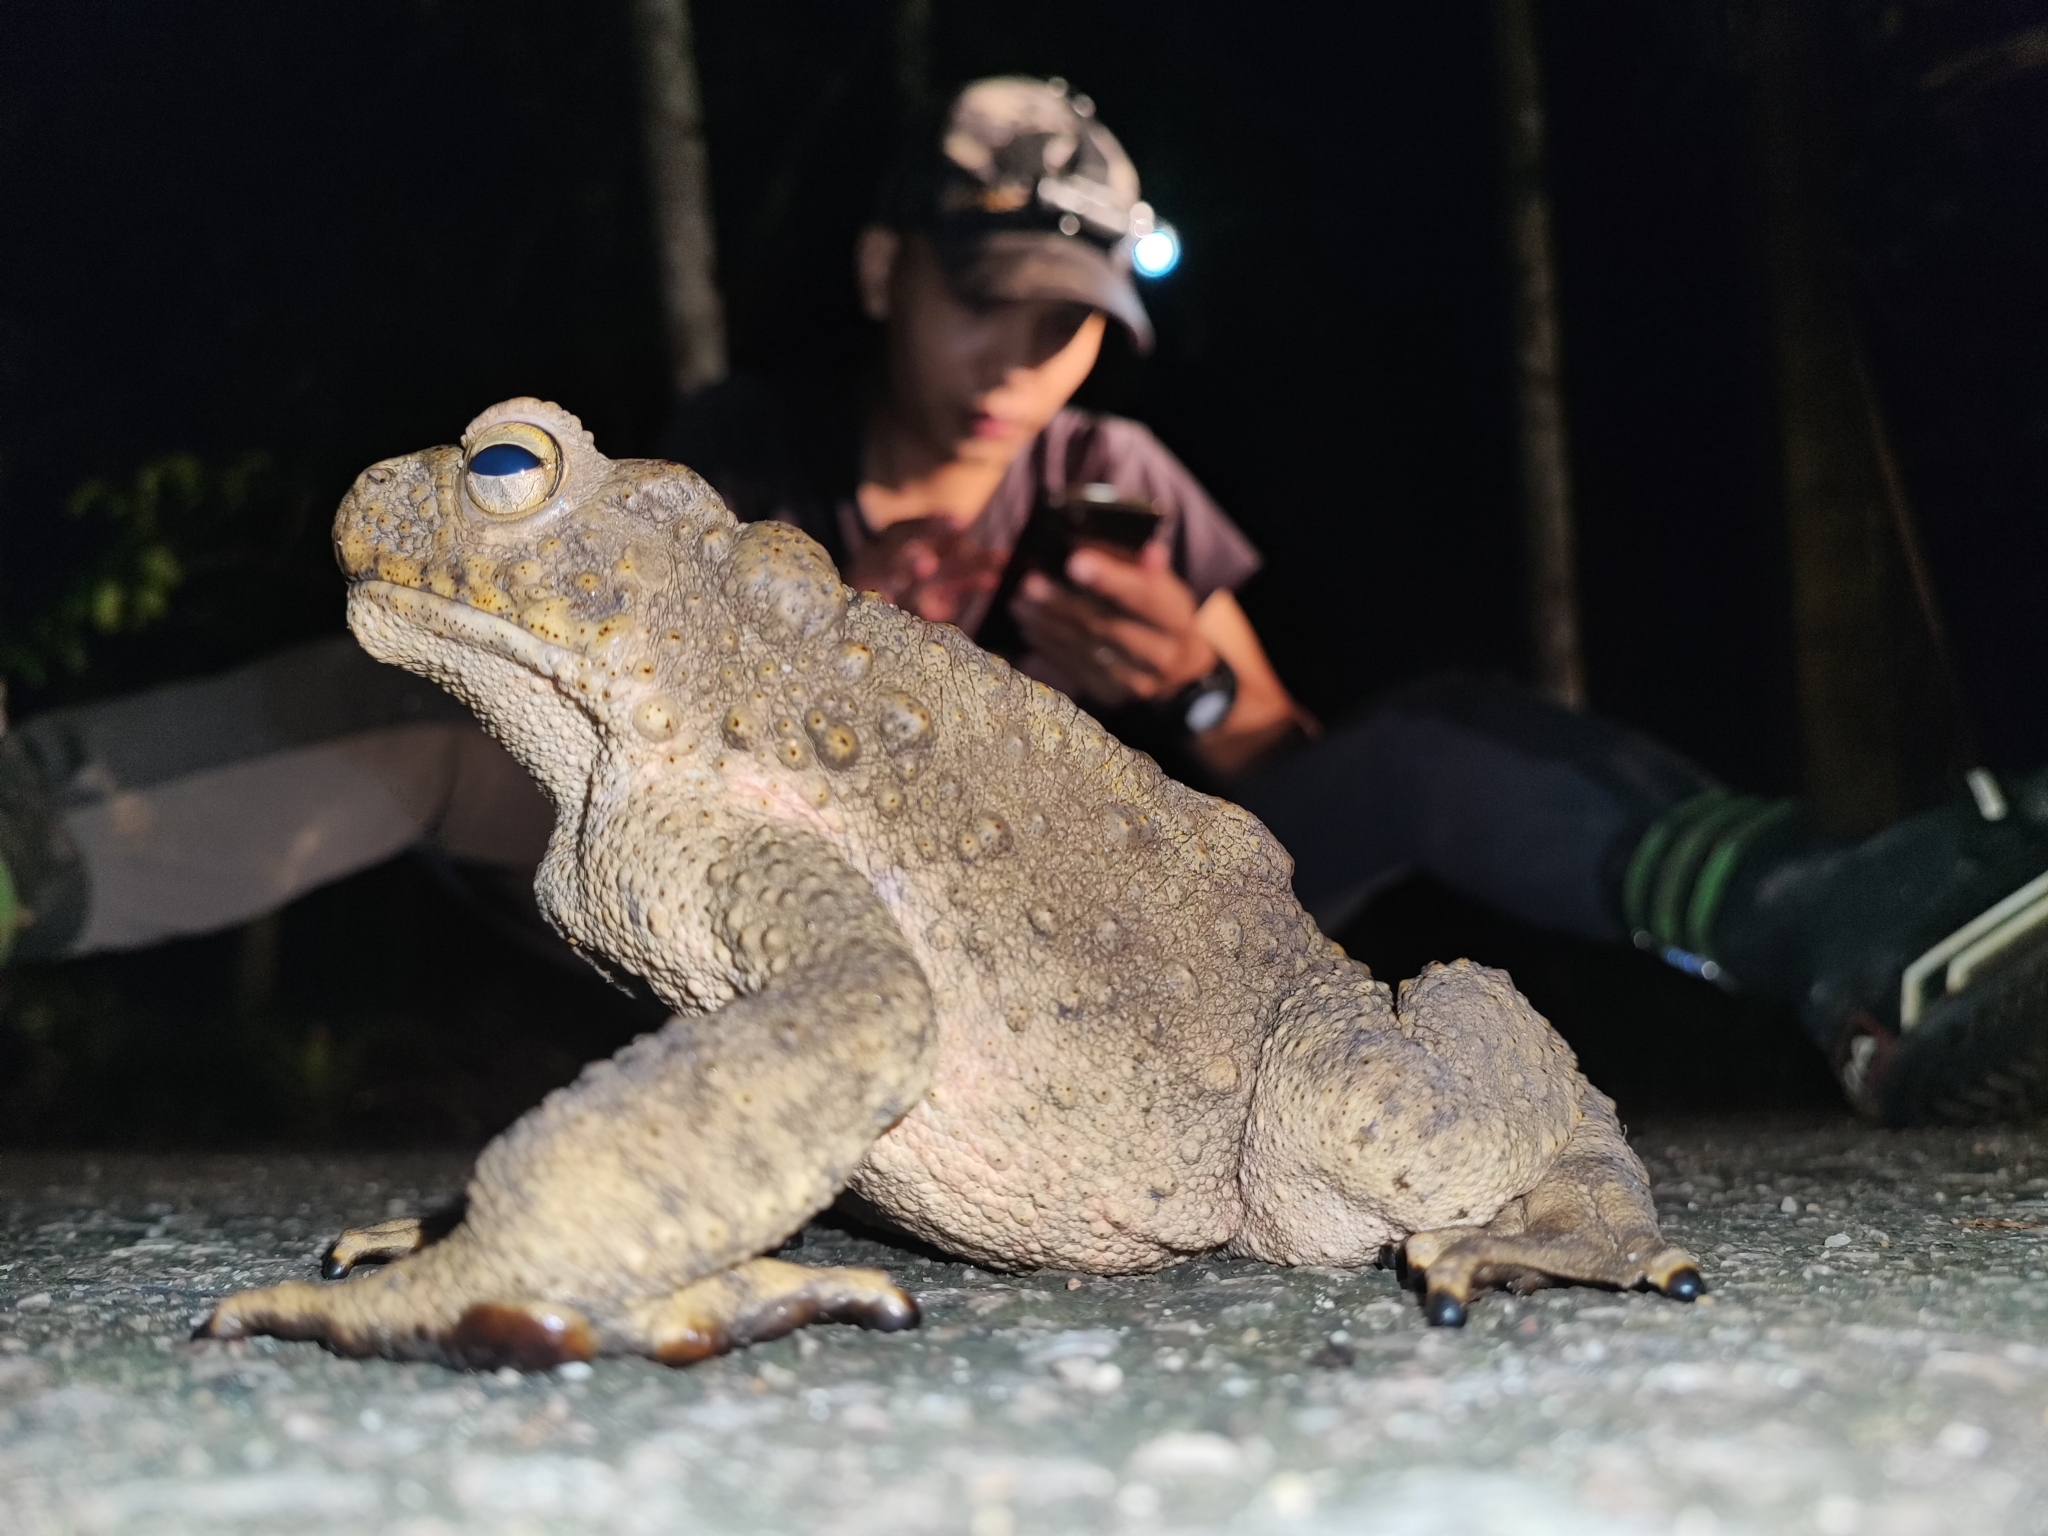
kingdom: Animalia
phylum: Chordata
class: Amphibia
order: Anura
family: Bufonidae
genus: Phrynoidis
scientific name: Phrynoidis asper
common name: Asian giant toad
